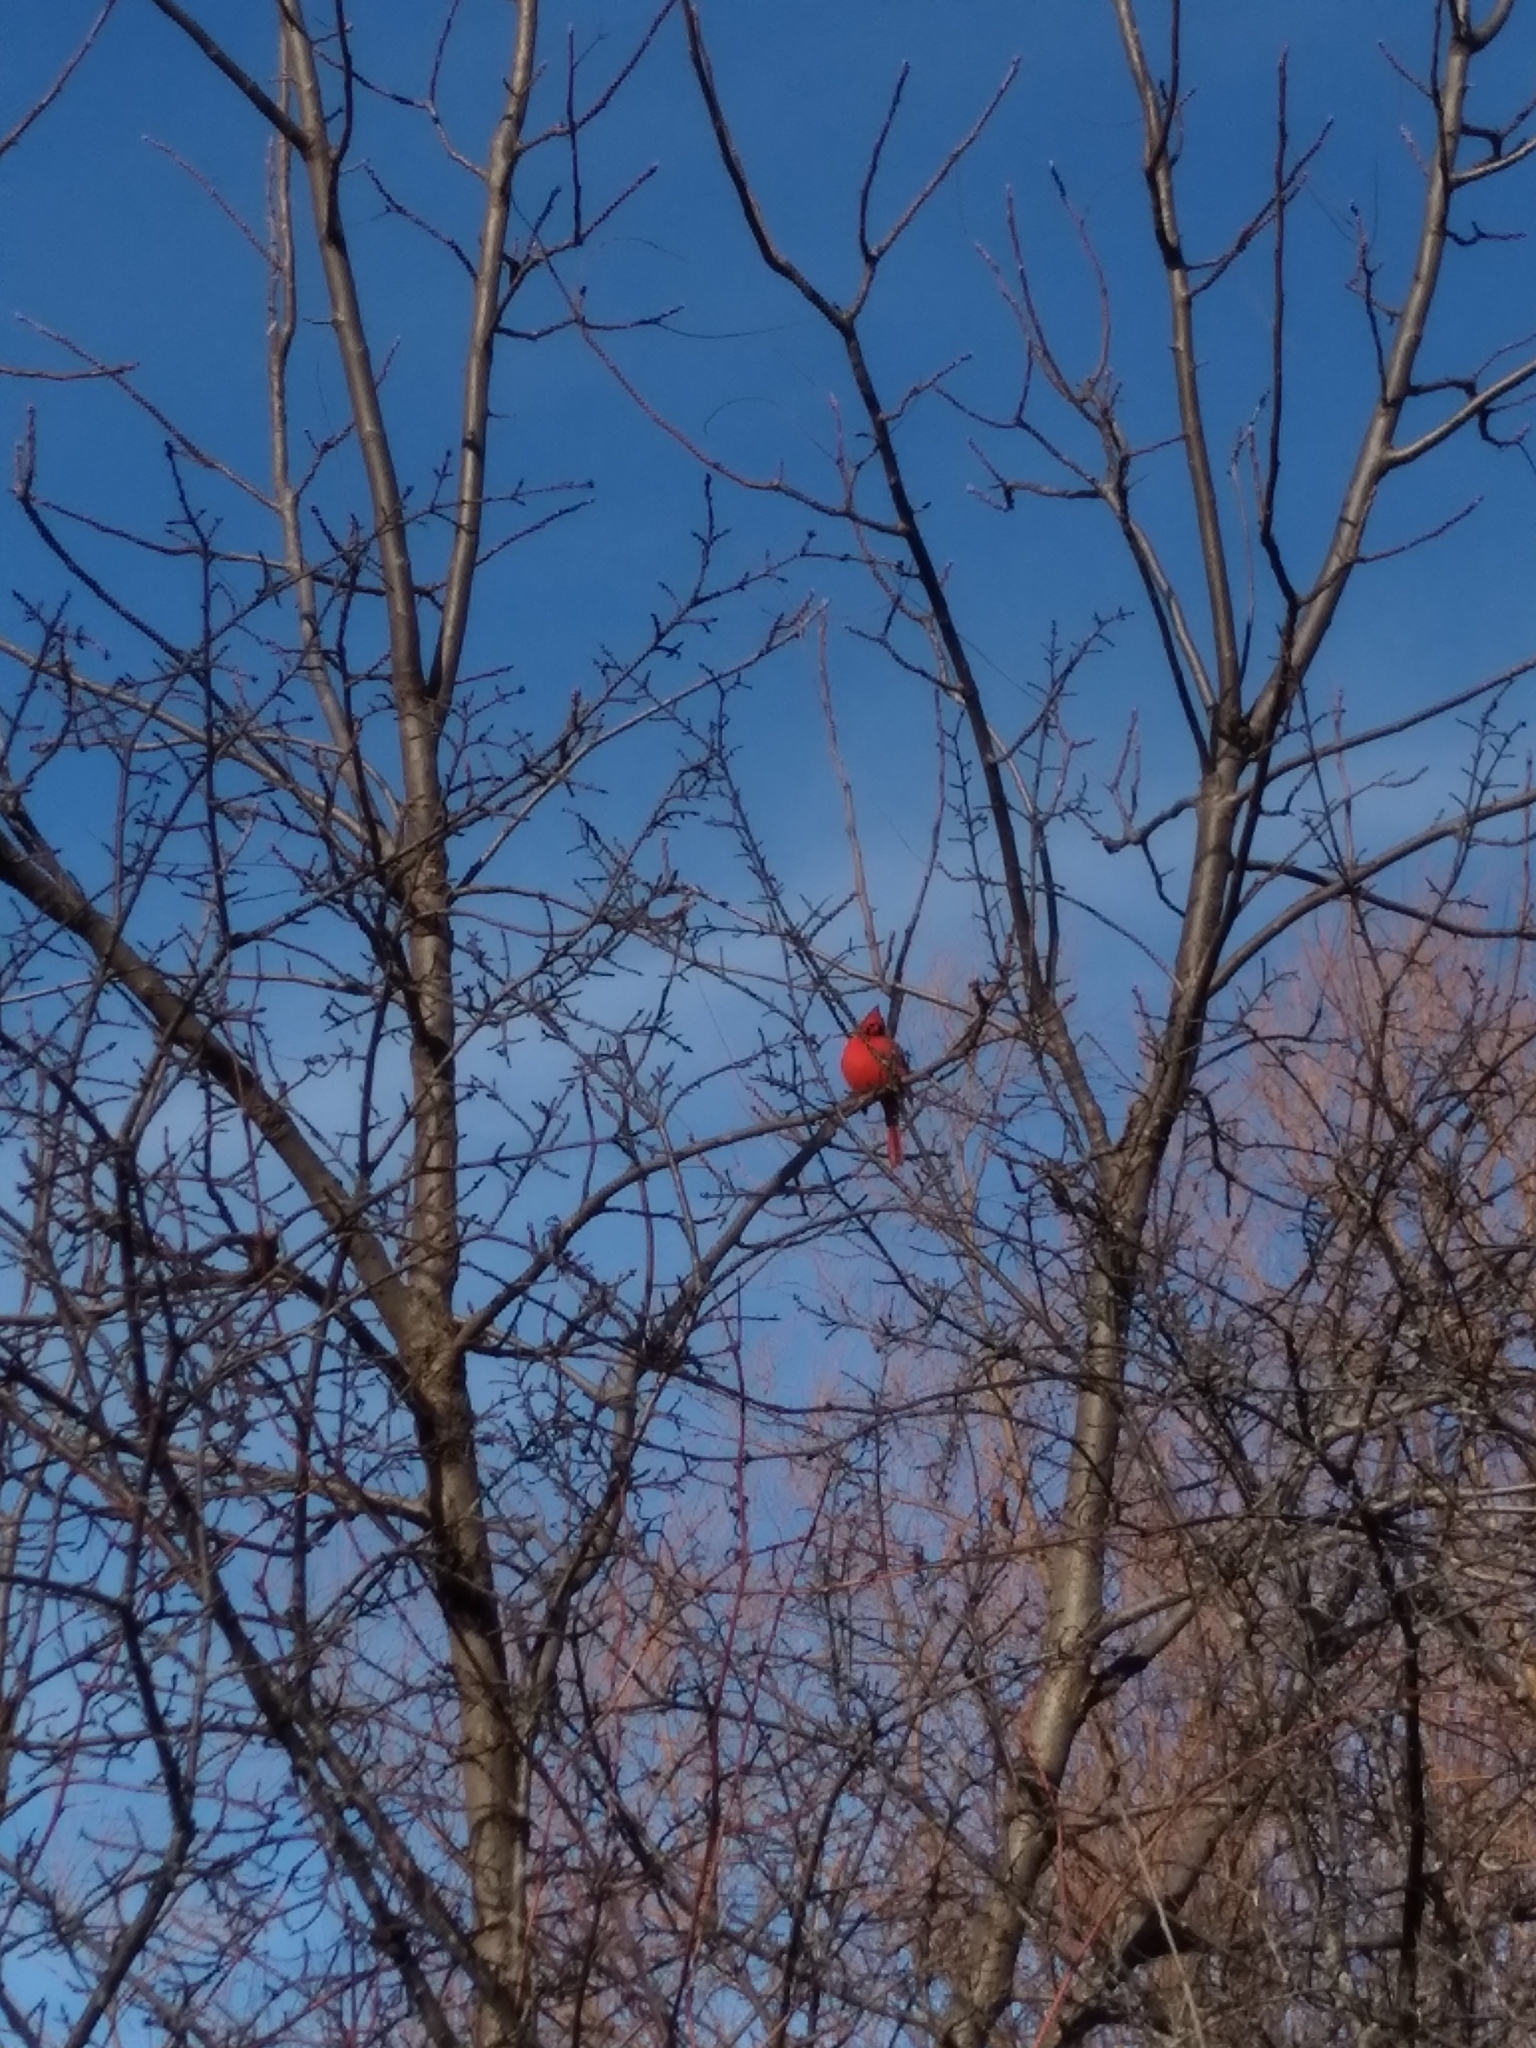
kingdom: Animalia
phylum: Chordata
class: Aves
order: Passeriformes
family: Cardinalidae
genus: Cardinalis
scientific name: Cardinalis cardinalis
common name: Northern cardinal
